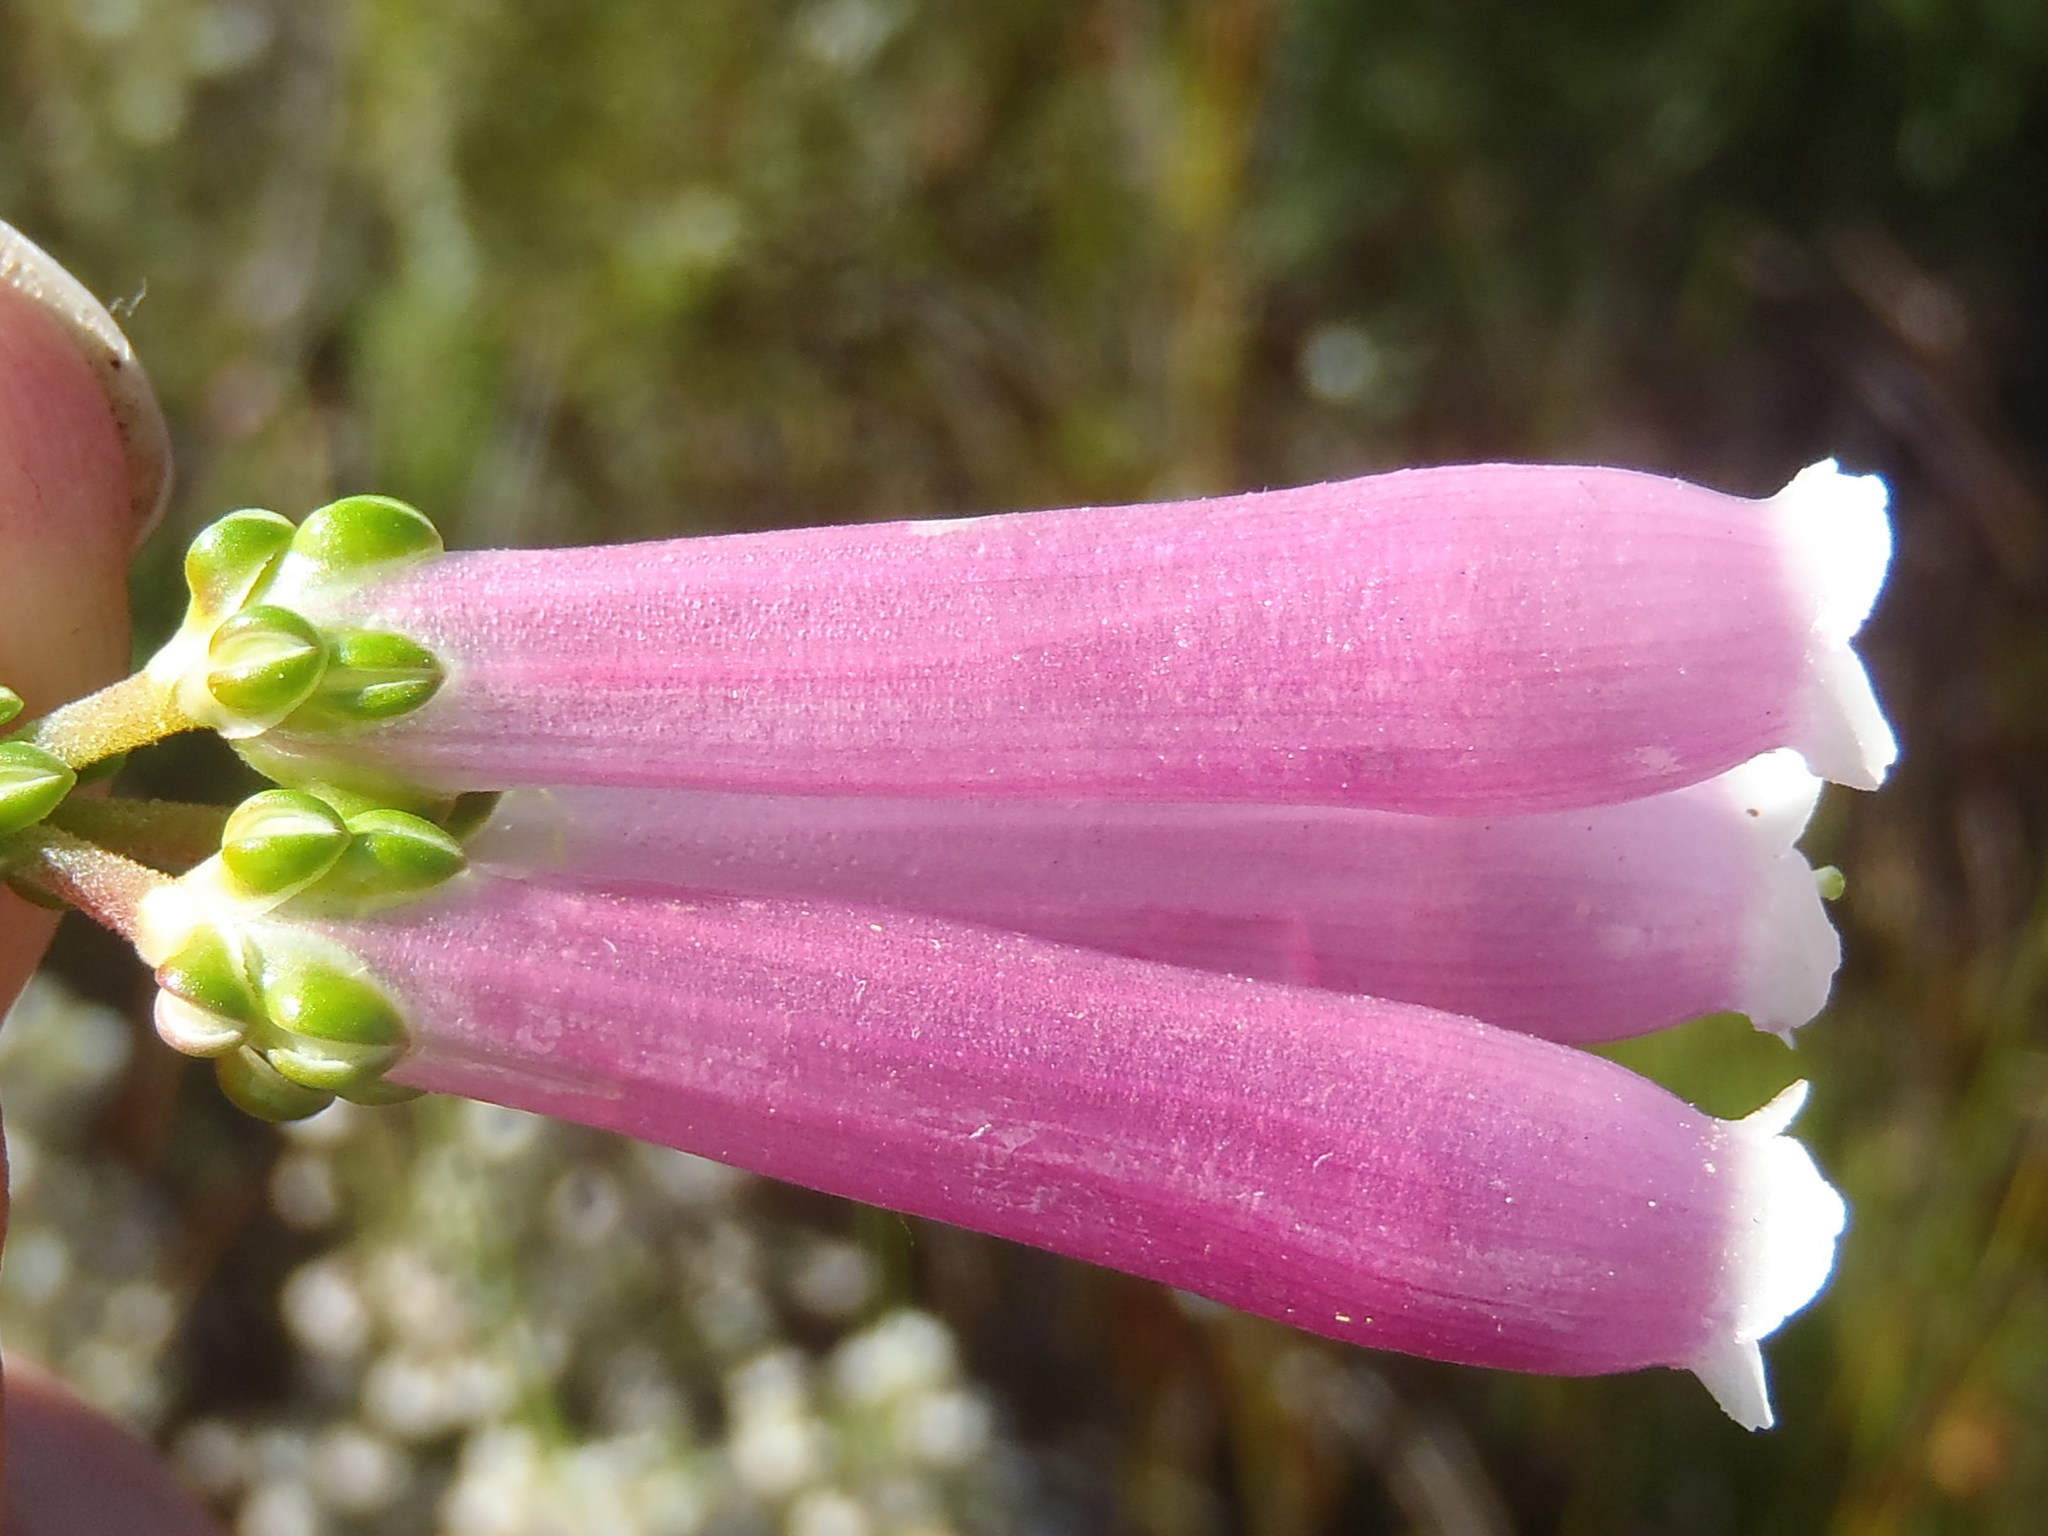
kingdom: Plantae
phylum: Tracheophyta
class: Magnoliopsida
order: Ericales
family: Ericaceae
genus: Erica
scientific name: Erica diaphana
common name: Heath
